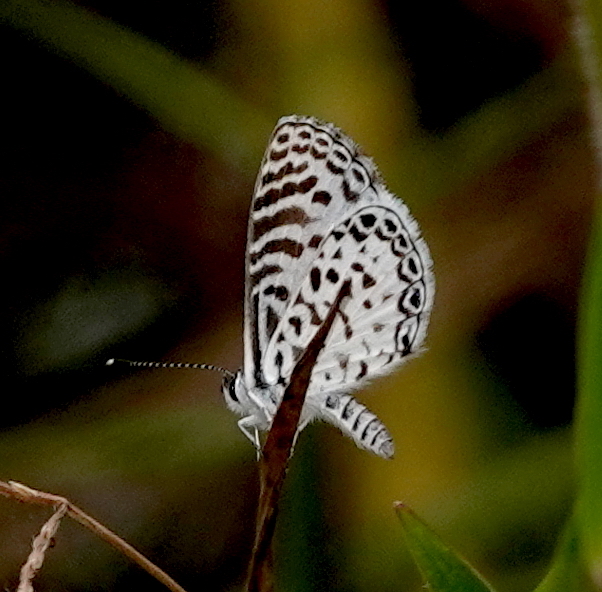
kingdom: Animalia
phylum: Arthropoda
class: Insecta
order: Lepidoptera
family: Lycaenidae
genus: Leptotes
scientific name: Leptotes cassius
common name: Cassius blue
